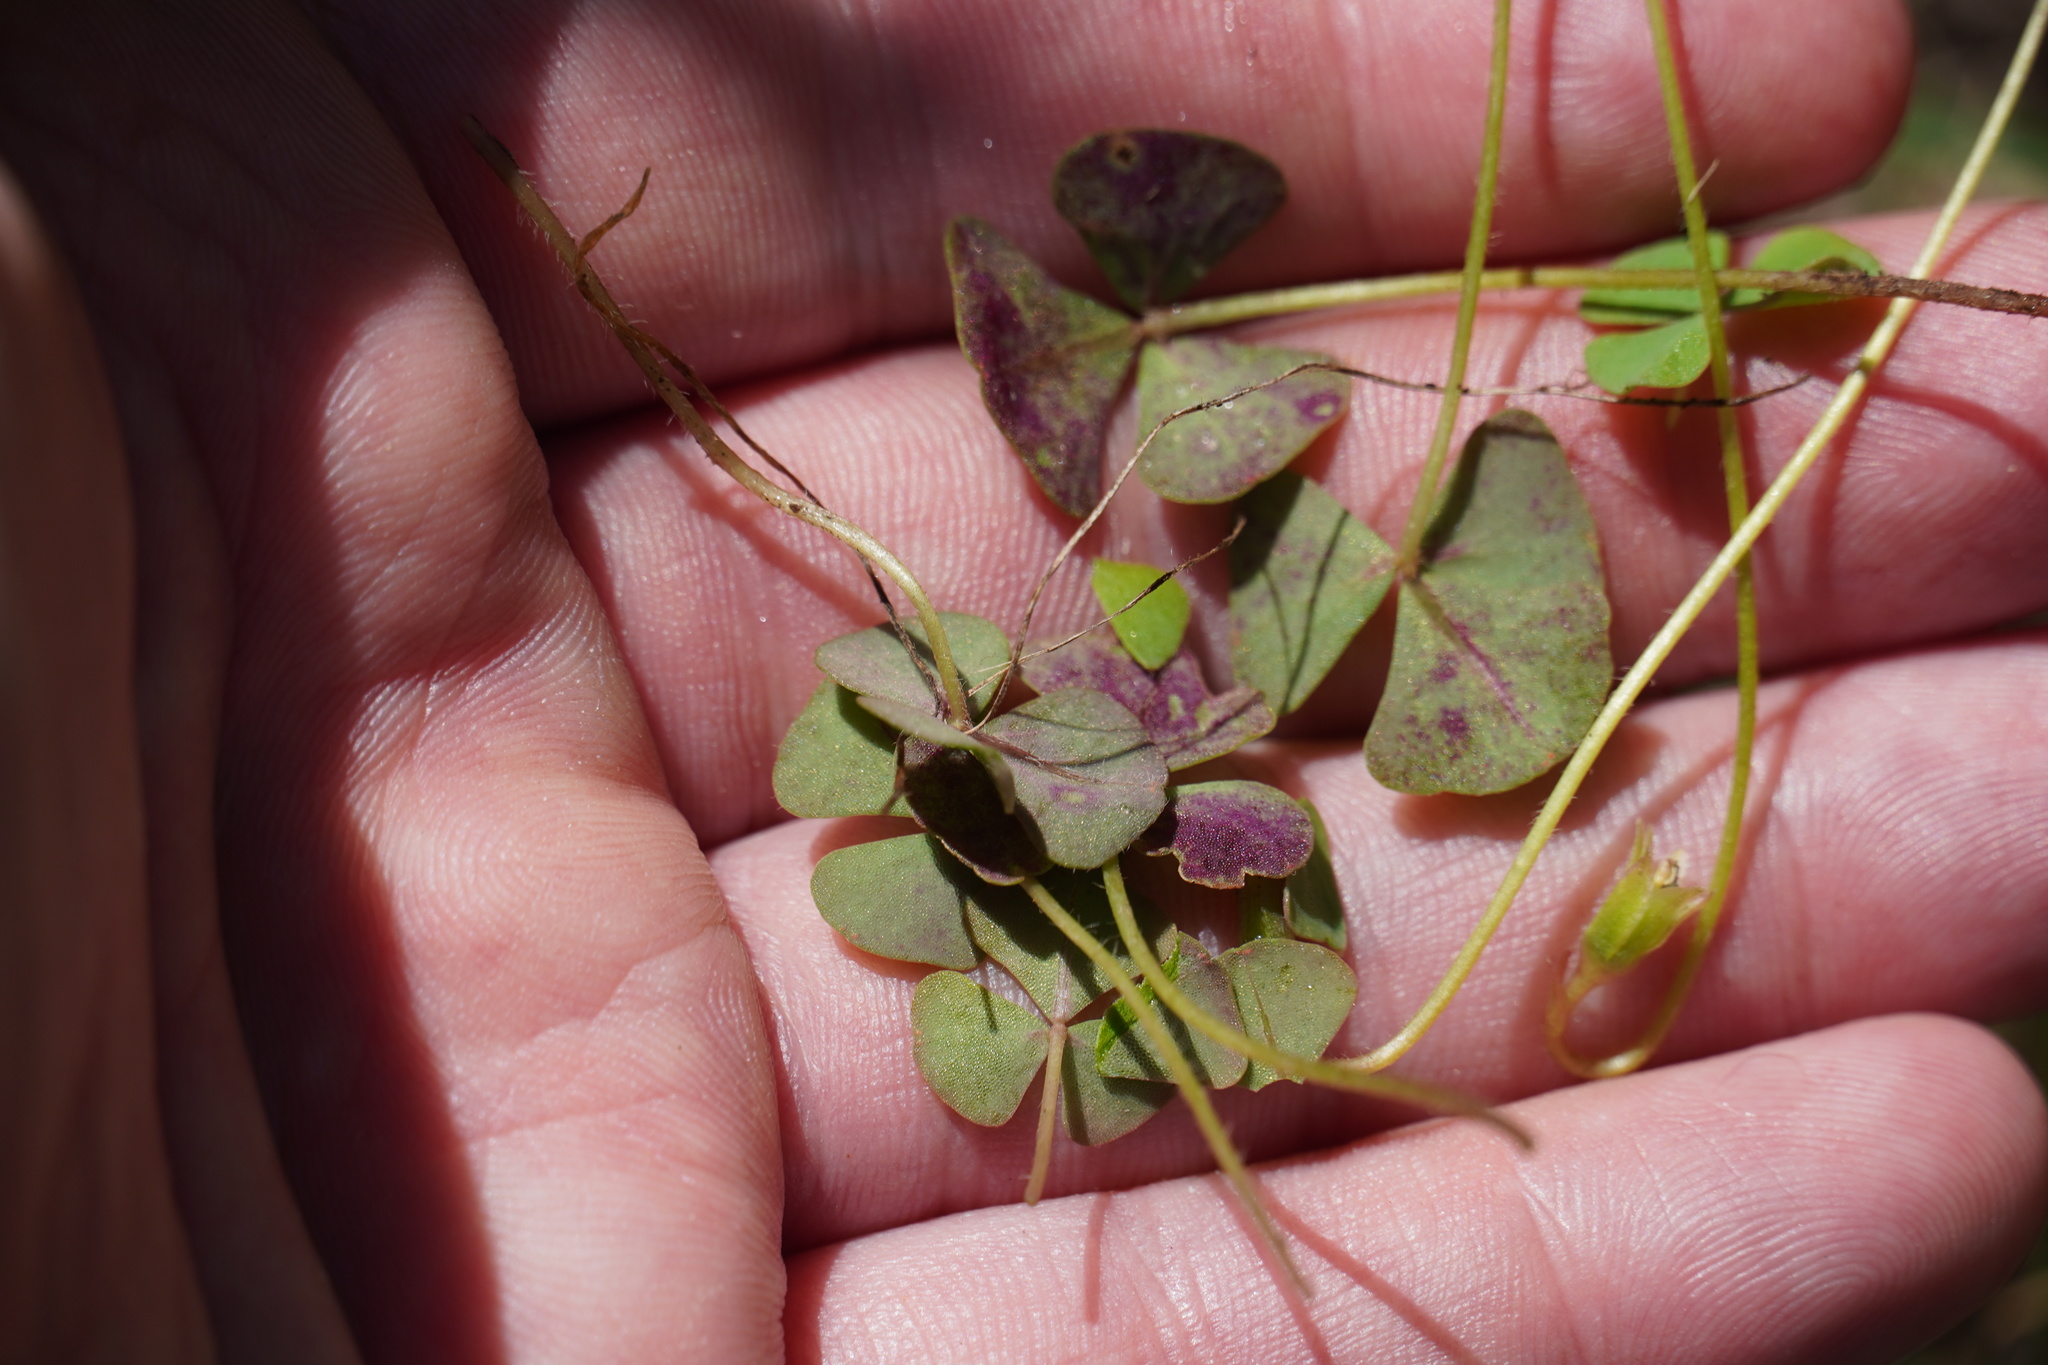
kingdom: Plantae
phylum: Tracheophyta
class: Magnoliopsida
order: Oxalidales
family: Oxalidaceae
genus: Oxalis
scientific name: Oxalis obliquifolia
